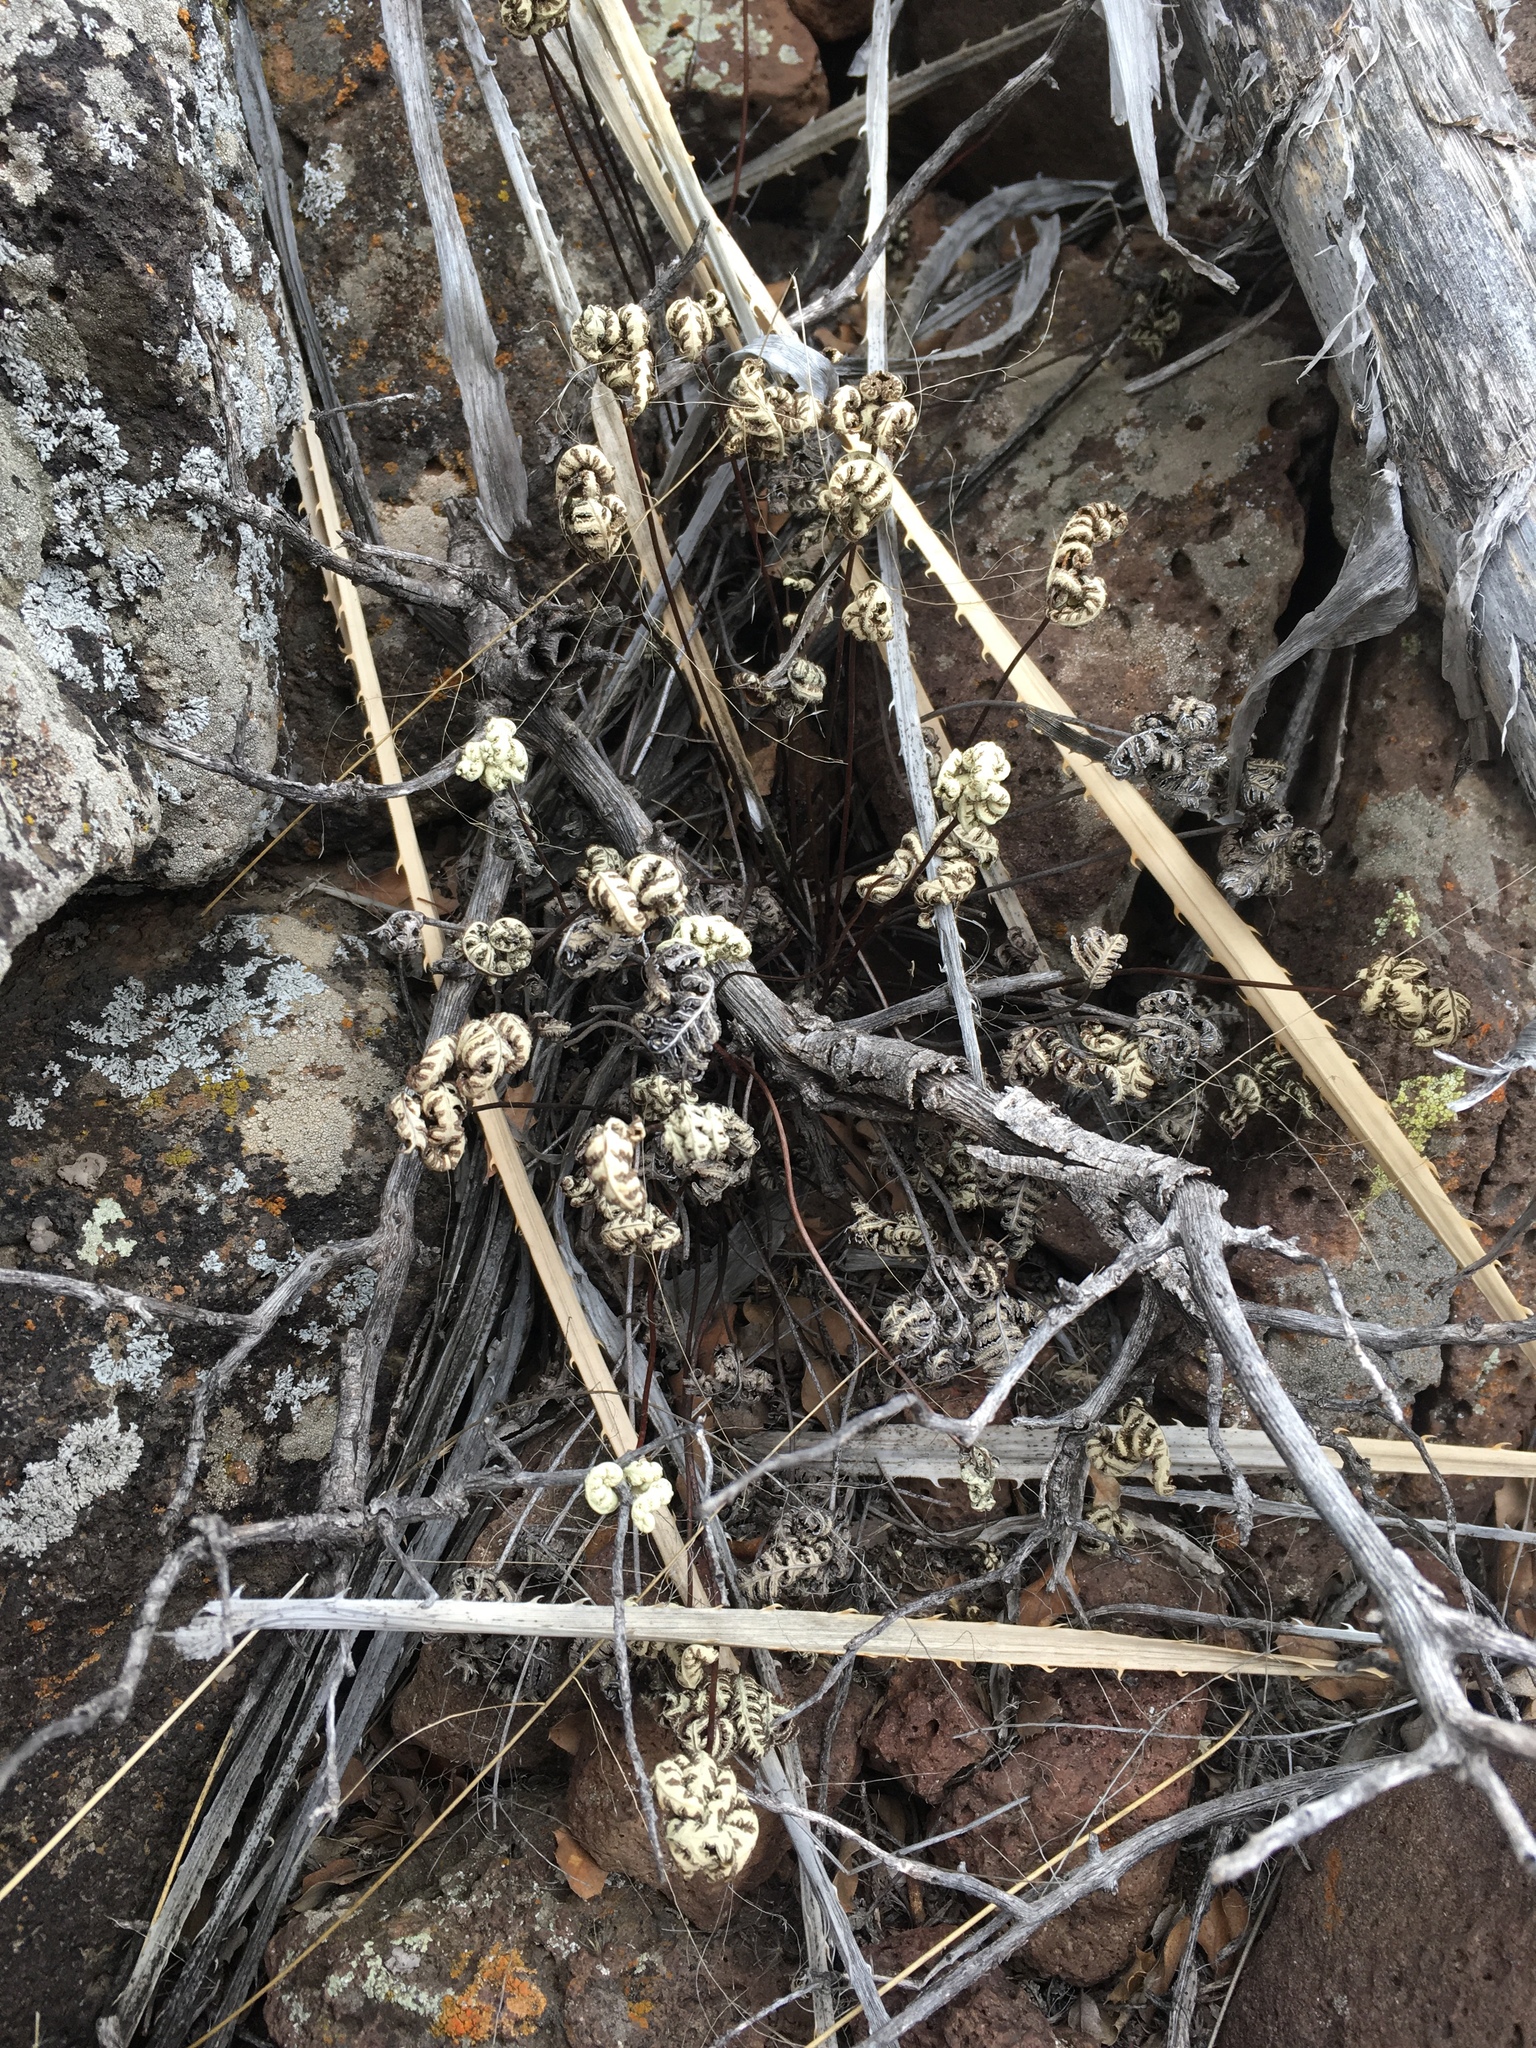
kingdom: Plantae
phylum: Tracheophyta
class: Polypodiopsida
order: Polypodiales
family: Pteridaceae
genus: Notholaena
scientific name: Notholaena standleyi
